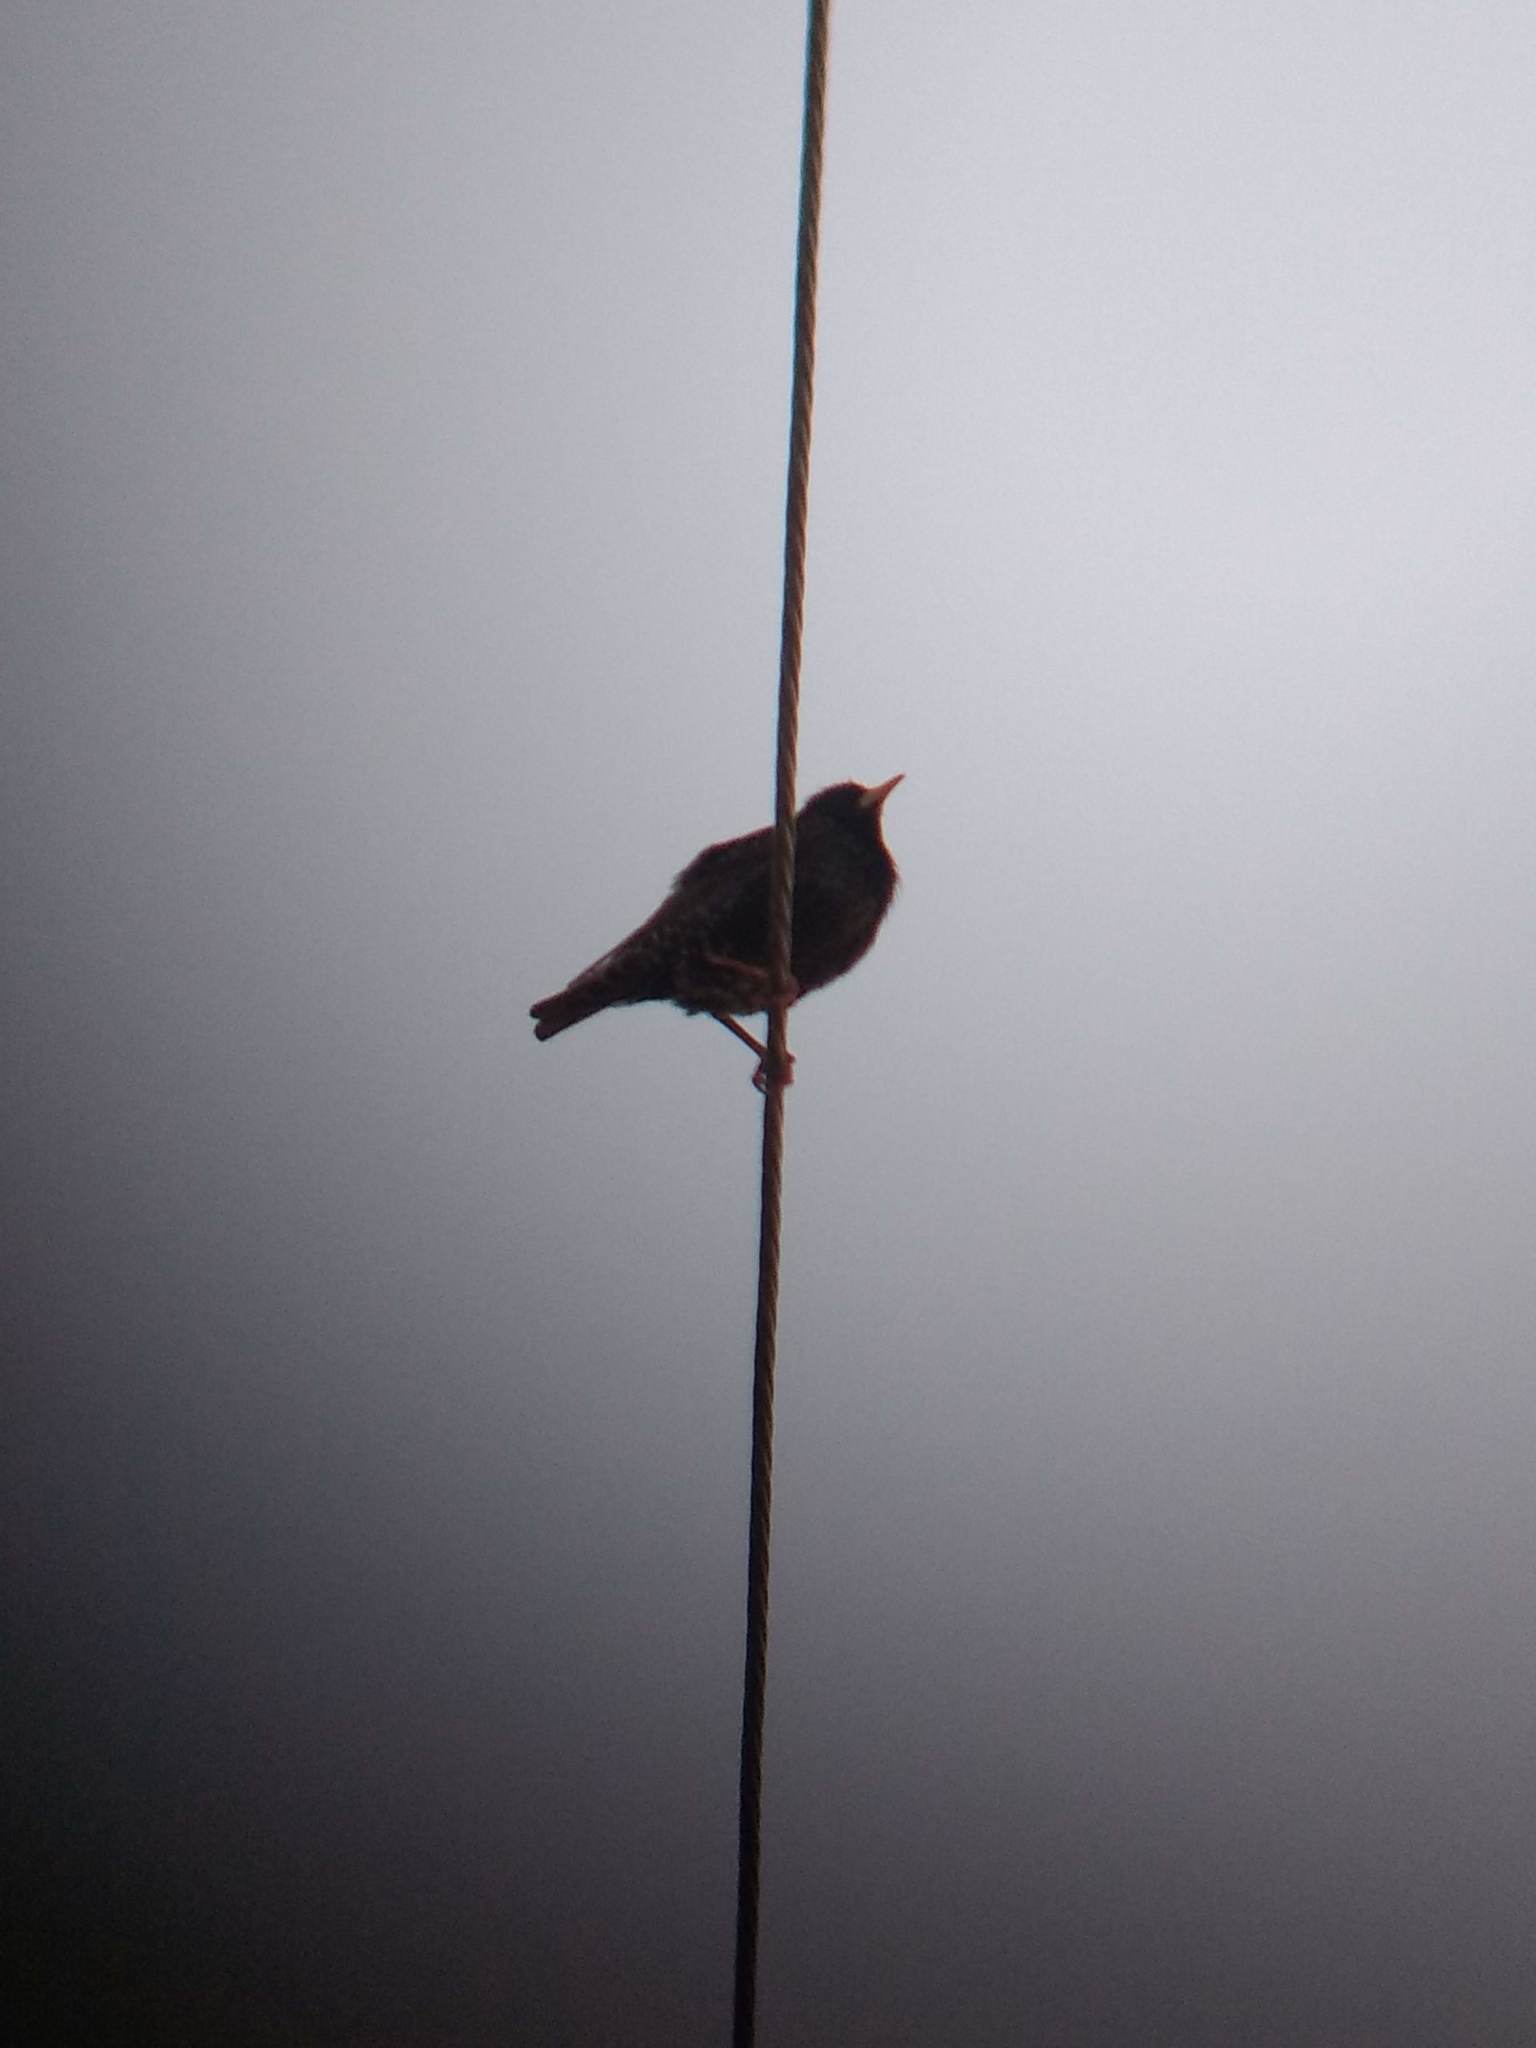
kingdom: Animalia
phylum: Chordata
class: Aves
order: Passeriformes
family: Sturnidae
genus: Sturnus
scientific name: Sturnus vulgaris
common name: Common starling
